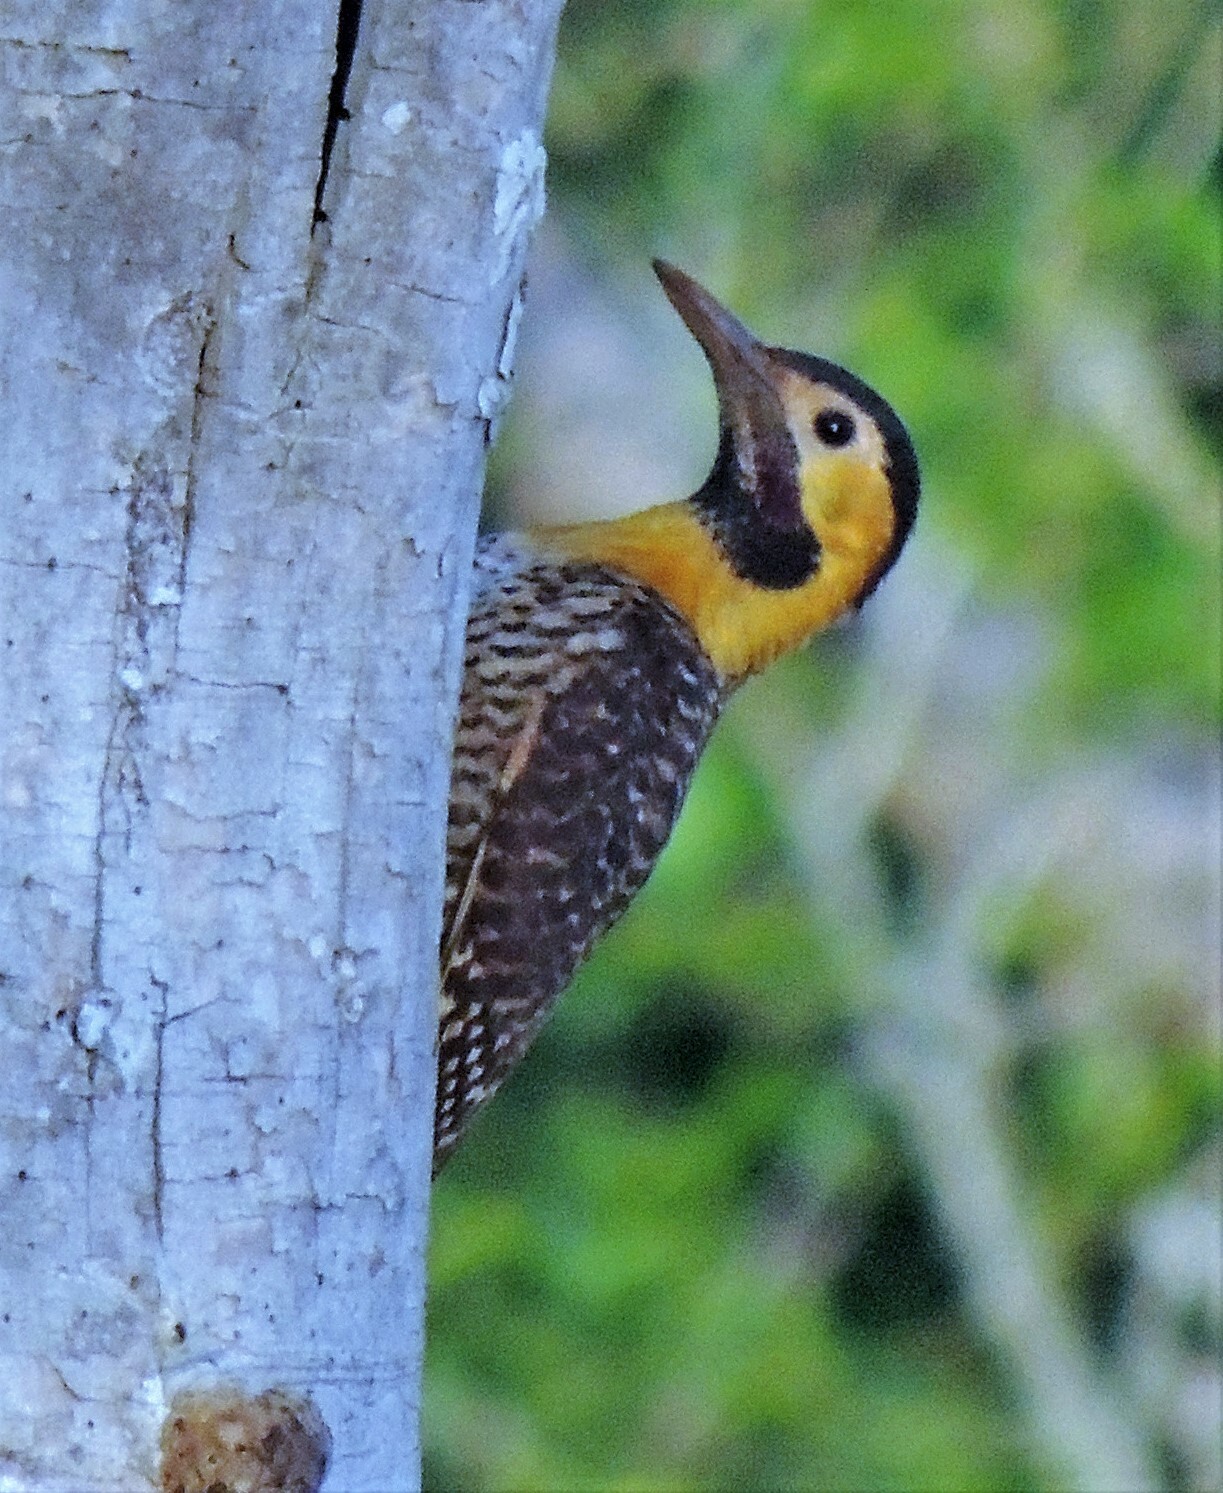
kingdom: Animalia
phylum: Chordata
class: Aves
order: Piciformes
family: Picidae
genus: Colaptes
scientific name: Colaptes campestris
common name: Campo flicker
